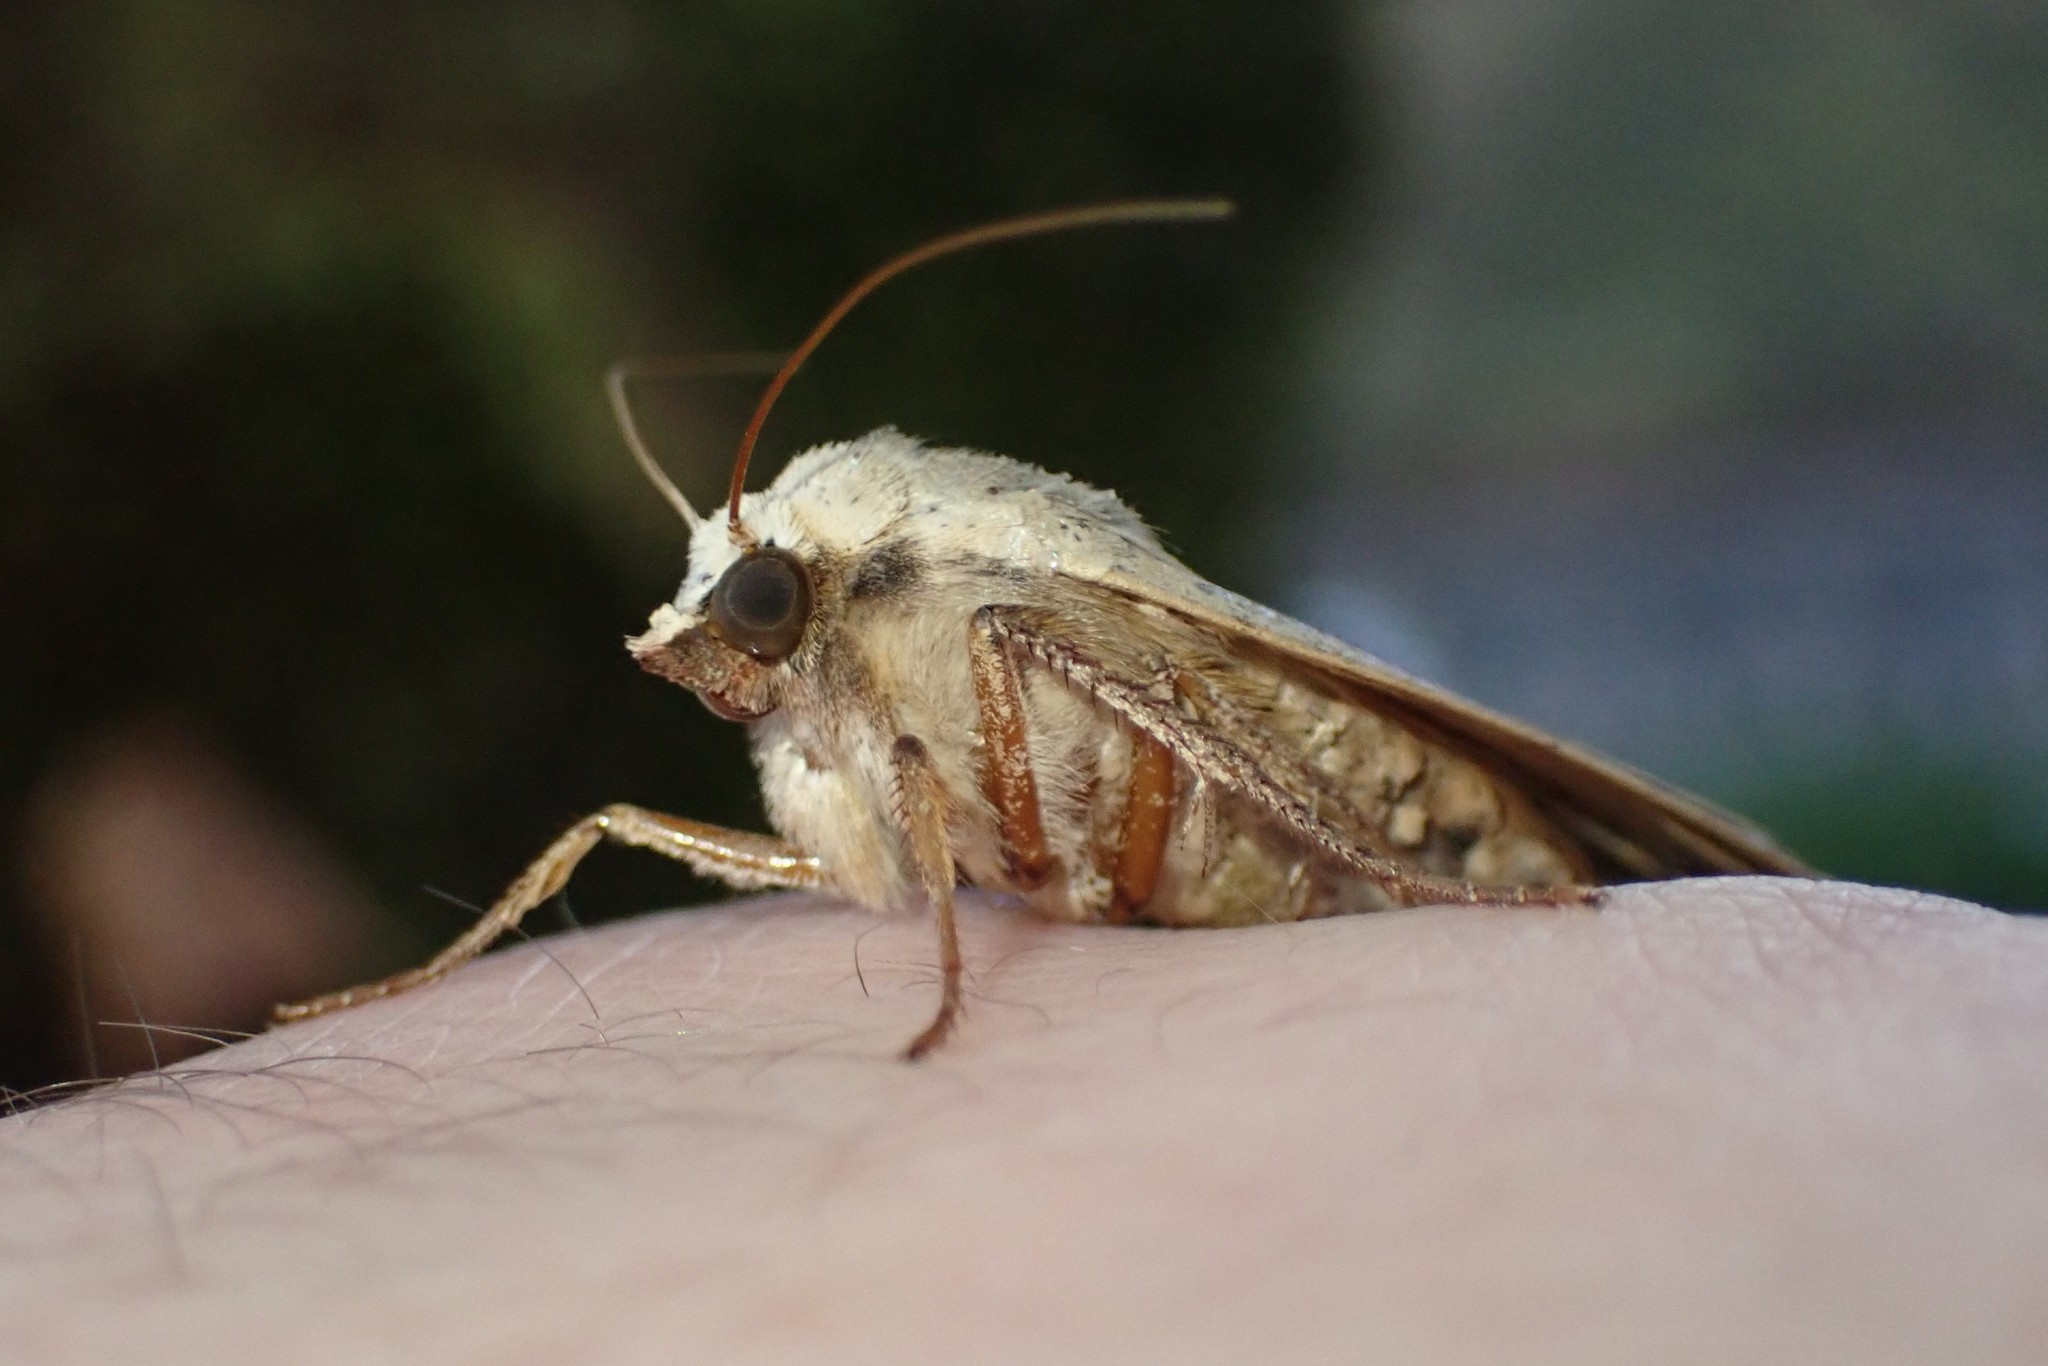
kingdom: Animalia
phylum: Arthropoda
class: Insecta
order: Lepidoptera
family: Noctuidae
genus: Noctua
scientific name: Noctua pronuba
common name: Large yellow underwing
